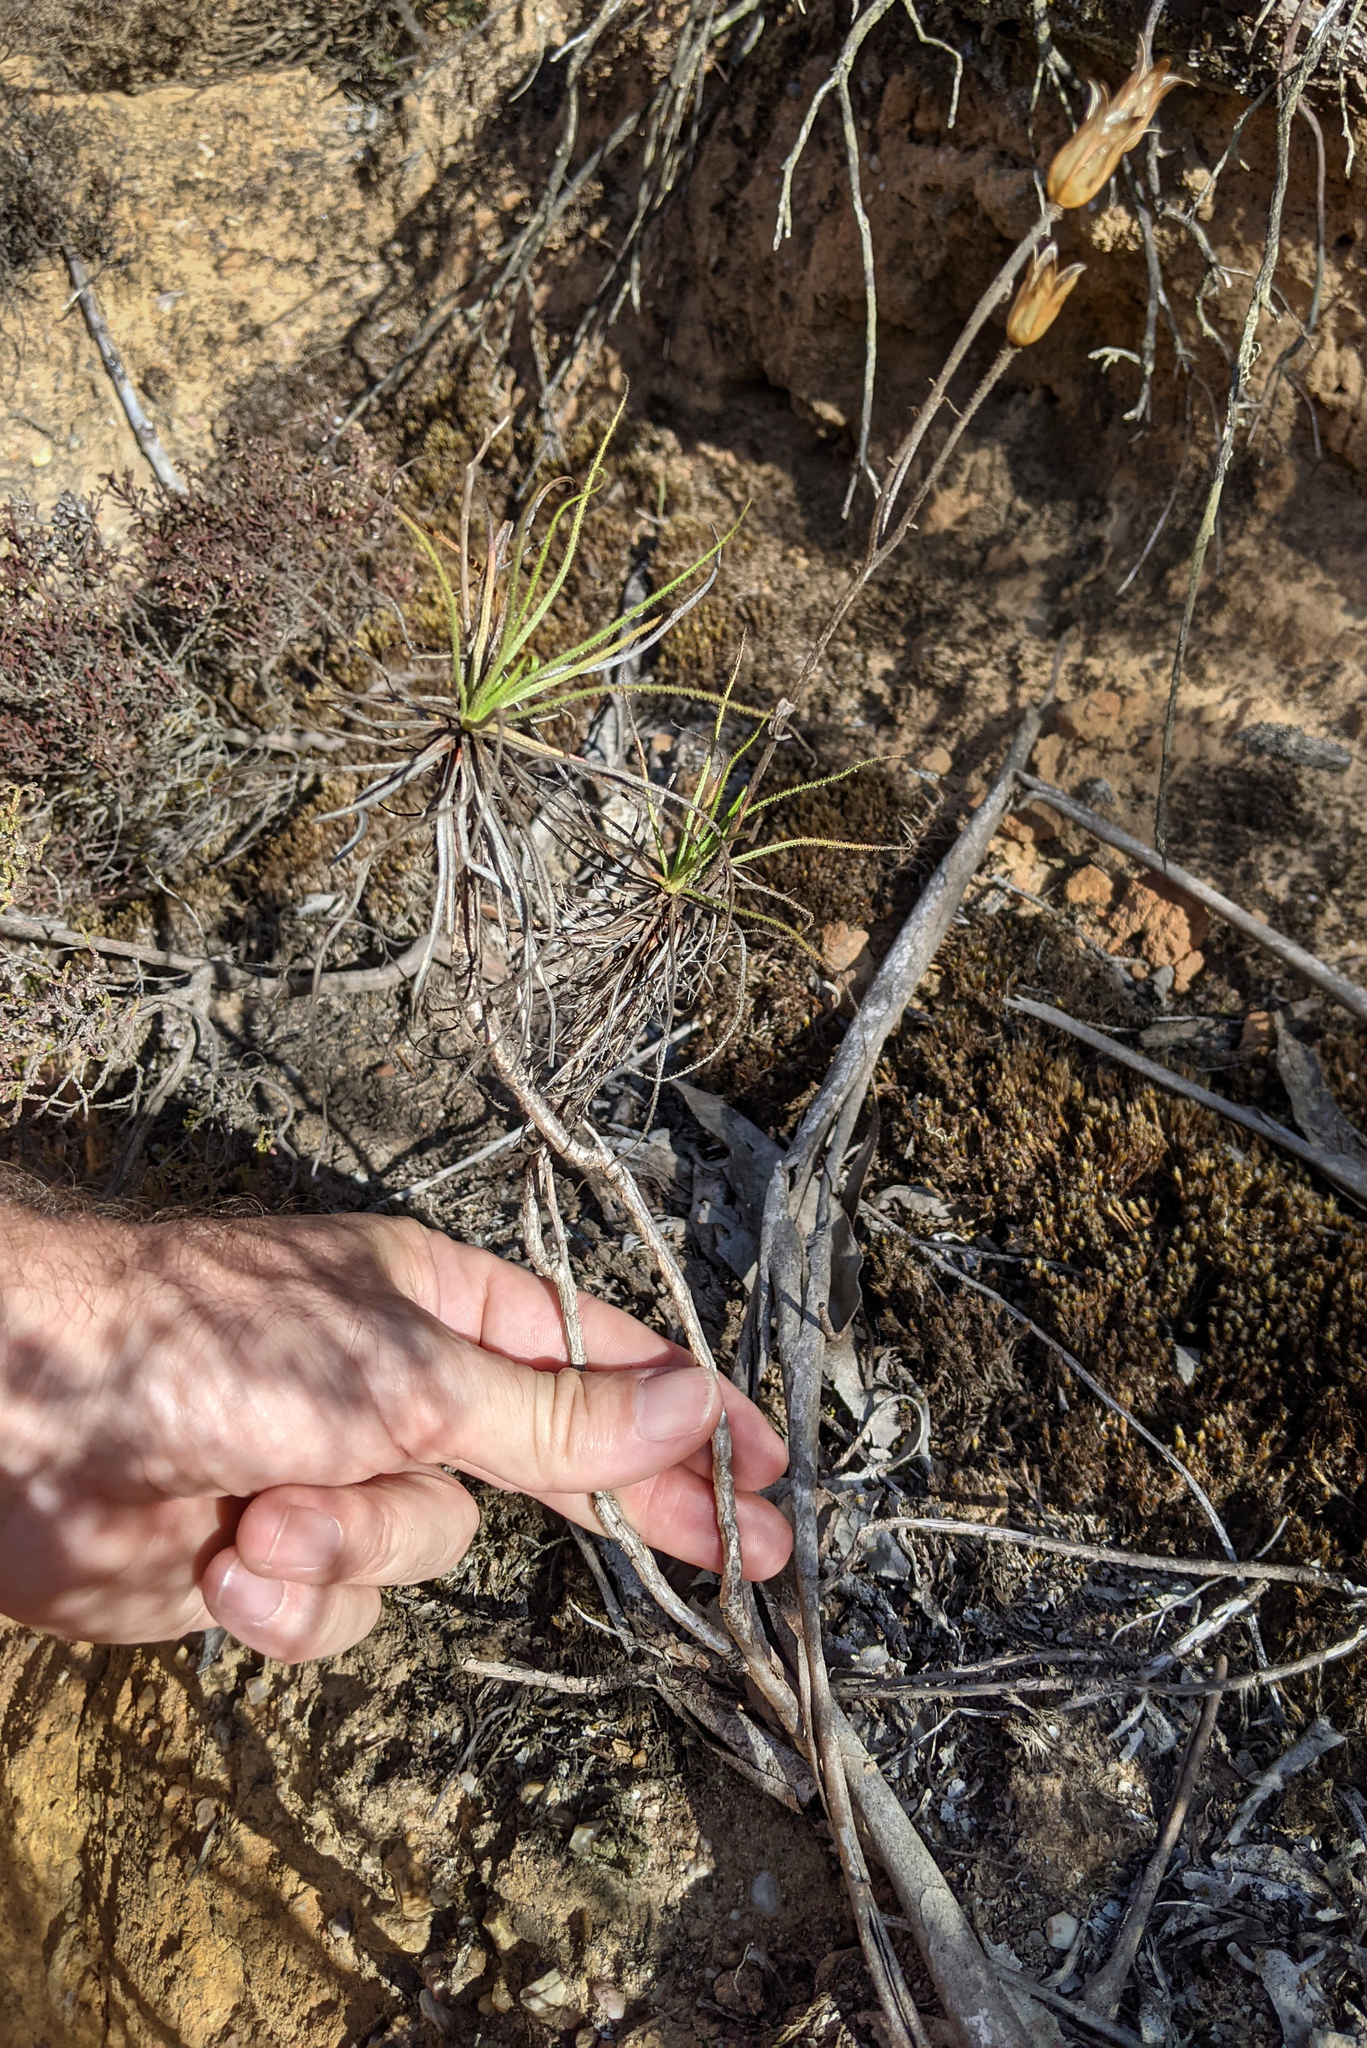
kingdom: Plantae
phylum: Tracheophyta
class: Magnoliopsida
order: Caryophyllales
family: Drosophyllaceae
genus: Drosophyllum
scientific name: Drosophyllum lusitanicum
